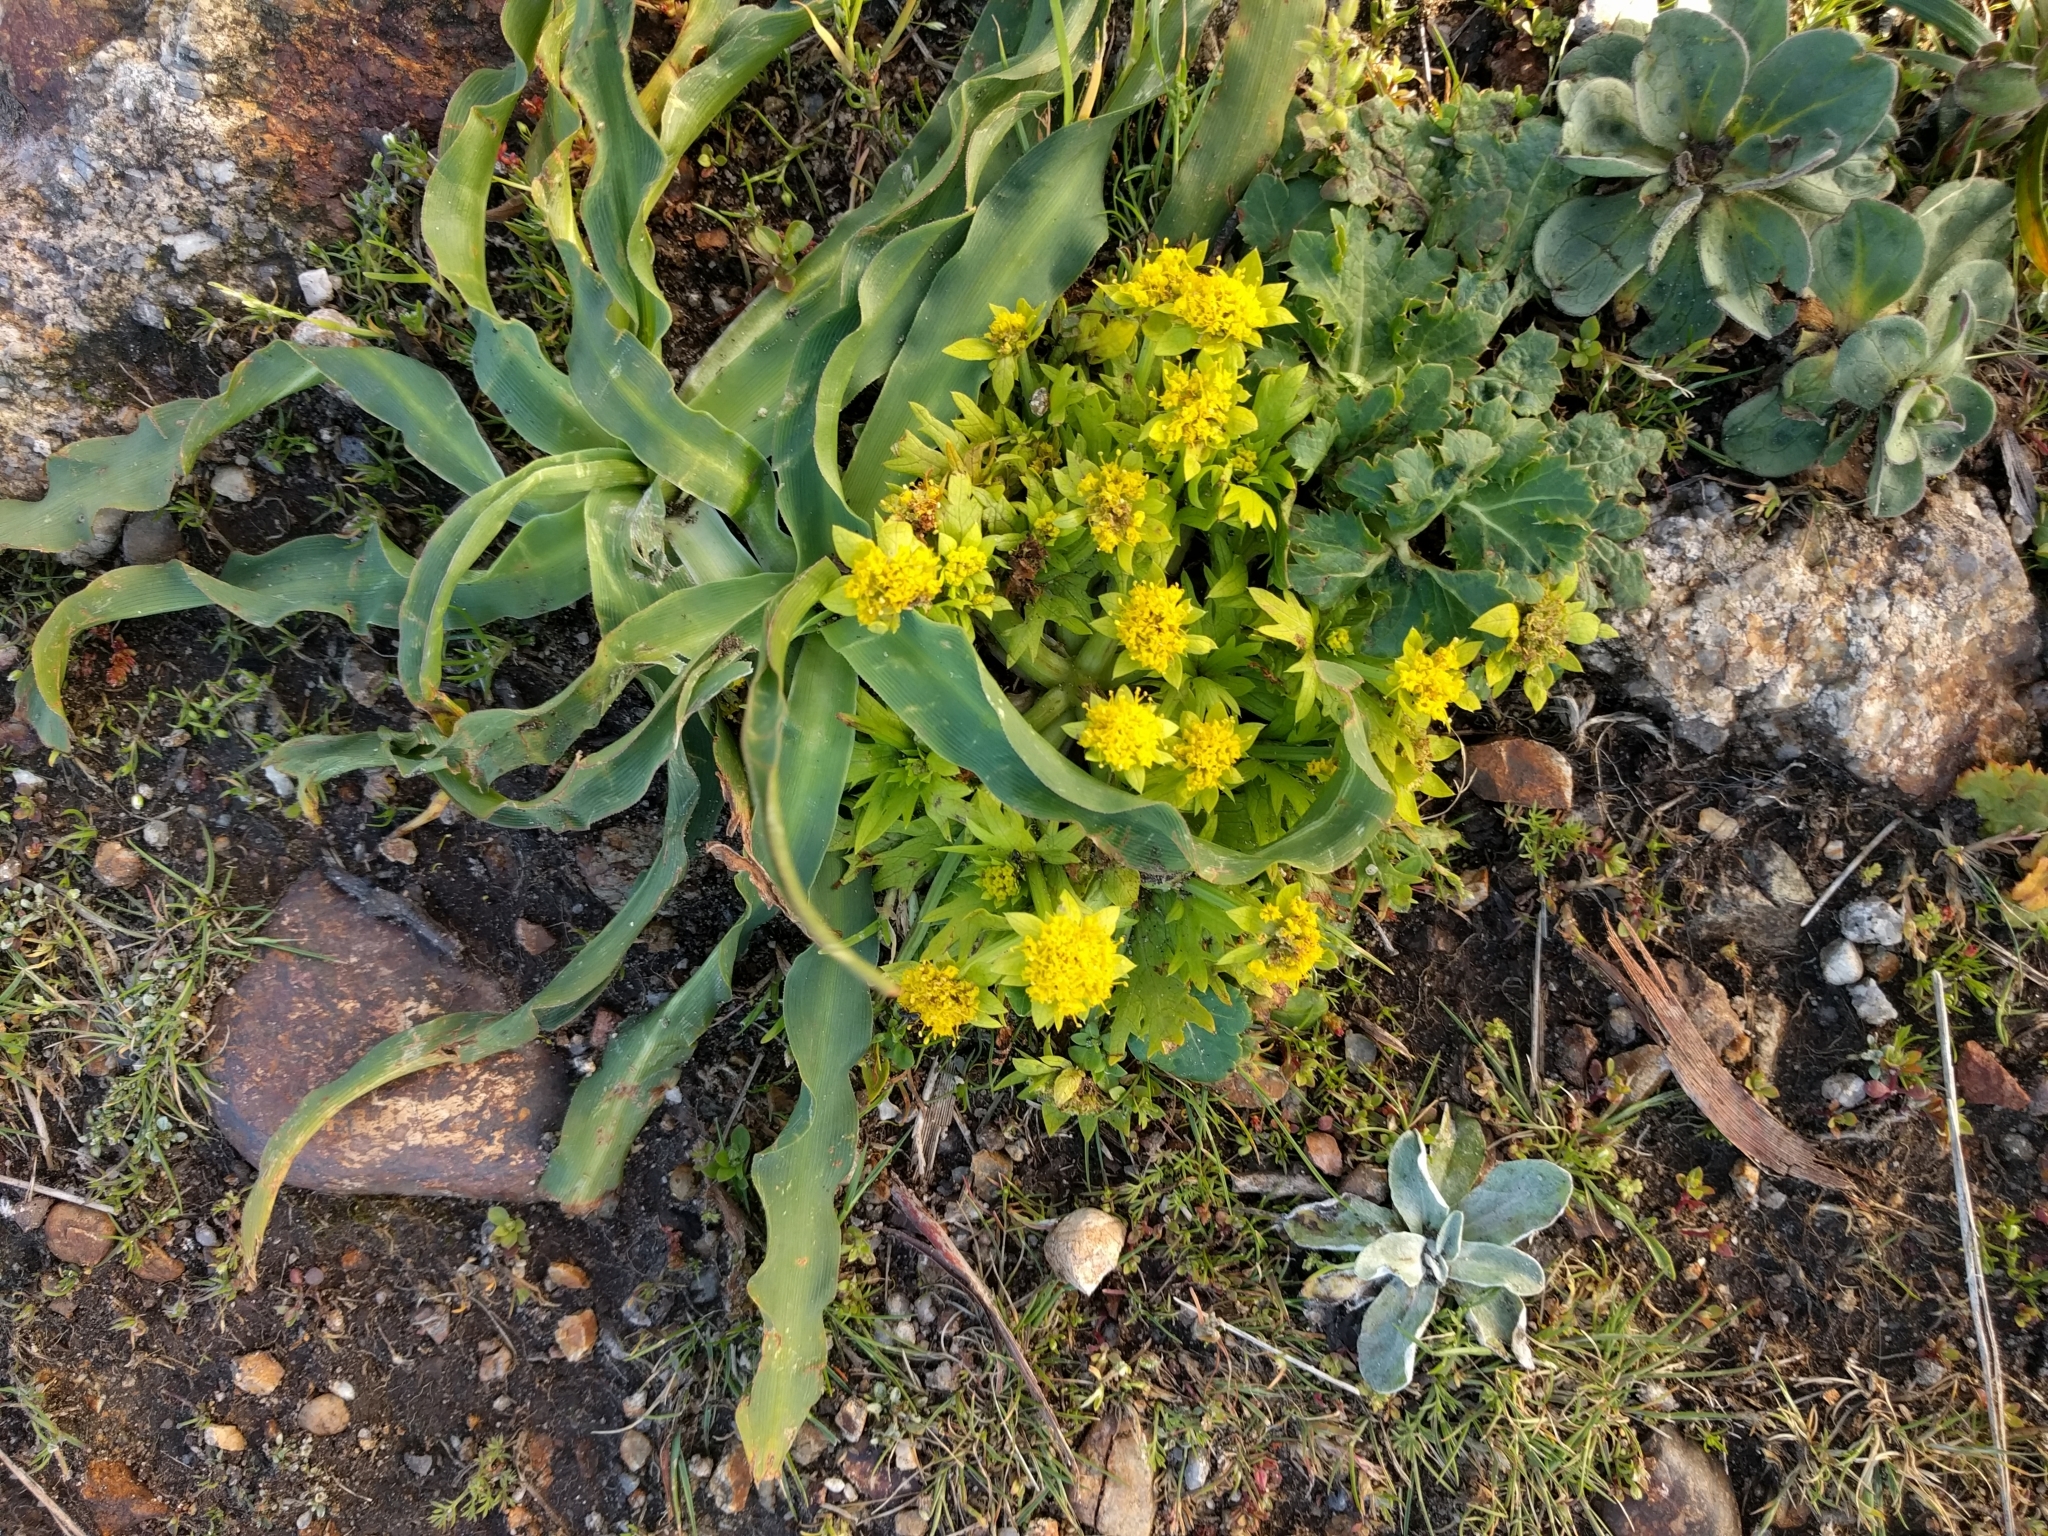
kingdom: Plantae
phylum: Tracheophyta
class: Magnoliopsida
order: Apiales
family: Apiaceae
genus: Sanicula
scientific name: Sanicula arctopoides
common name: Footsteps-of-spring
